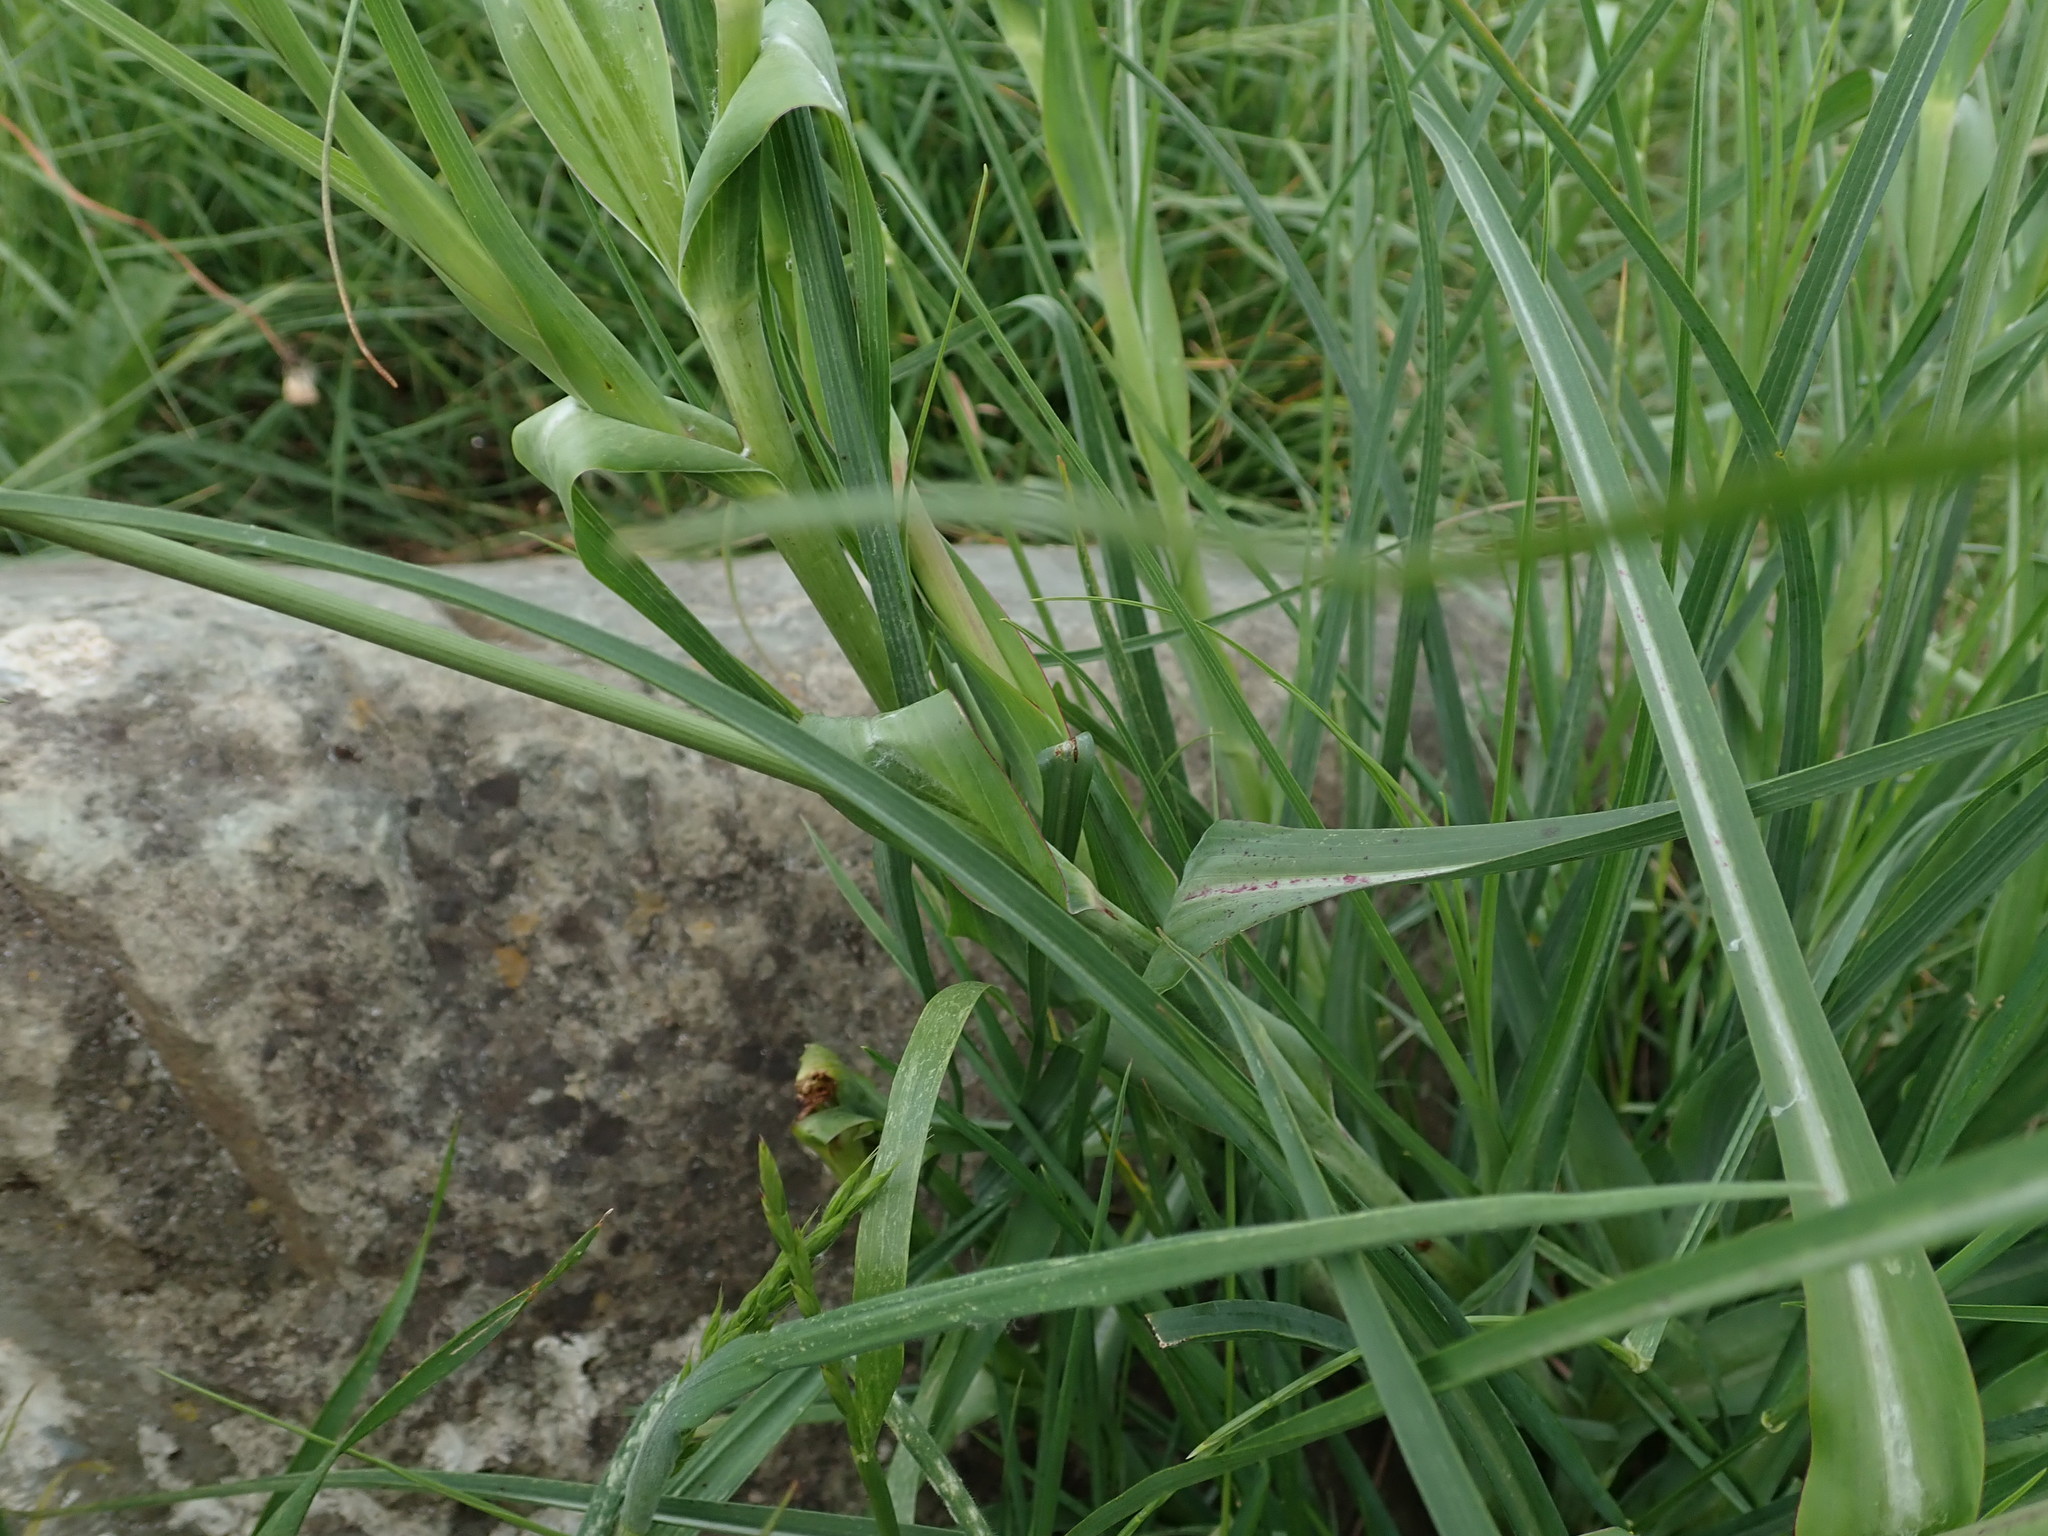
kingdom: Plantae
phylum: Tracheophyta
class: Magnoliopsida
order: Asterales
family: Asteraceae
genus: Tragopogon
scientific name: Tragopogon pratensis
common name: Goat's-beard
